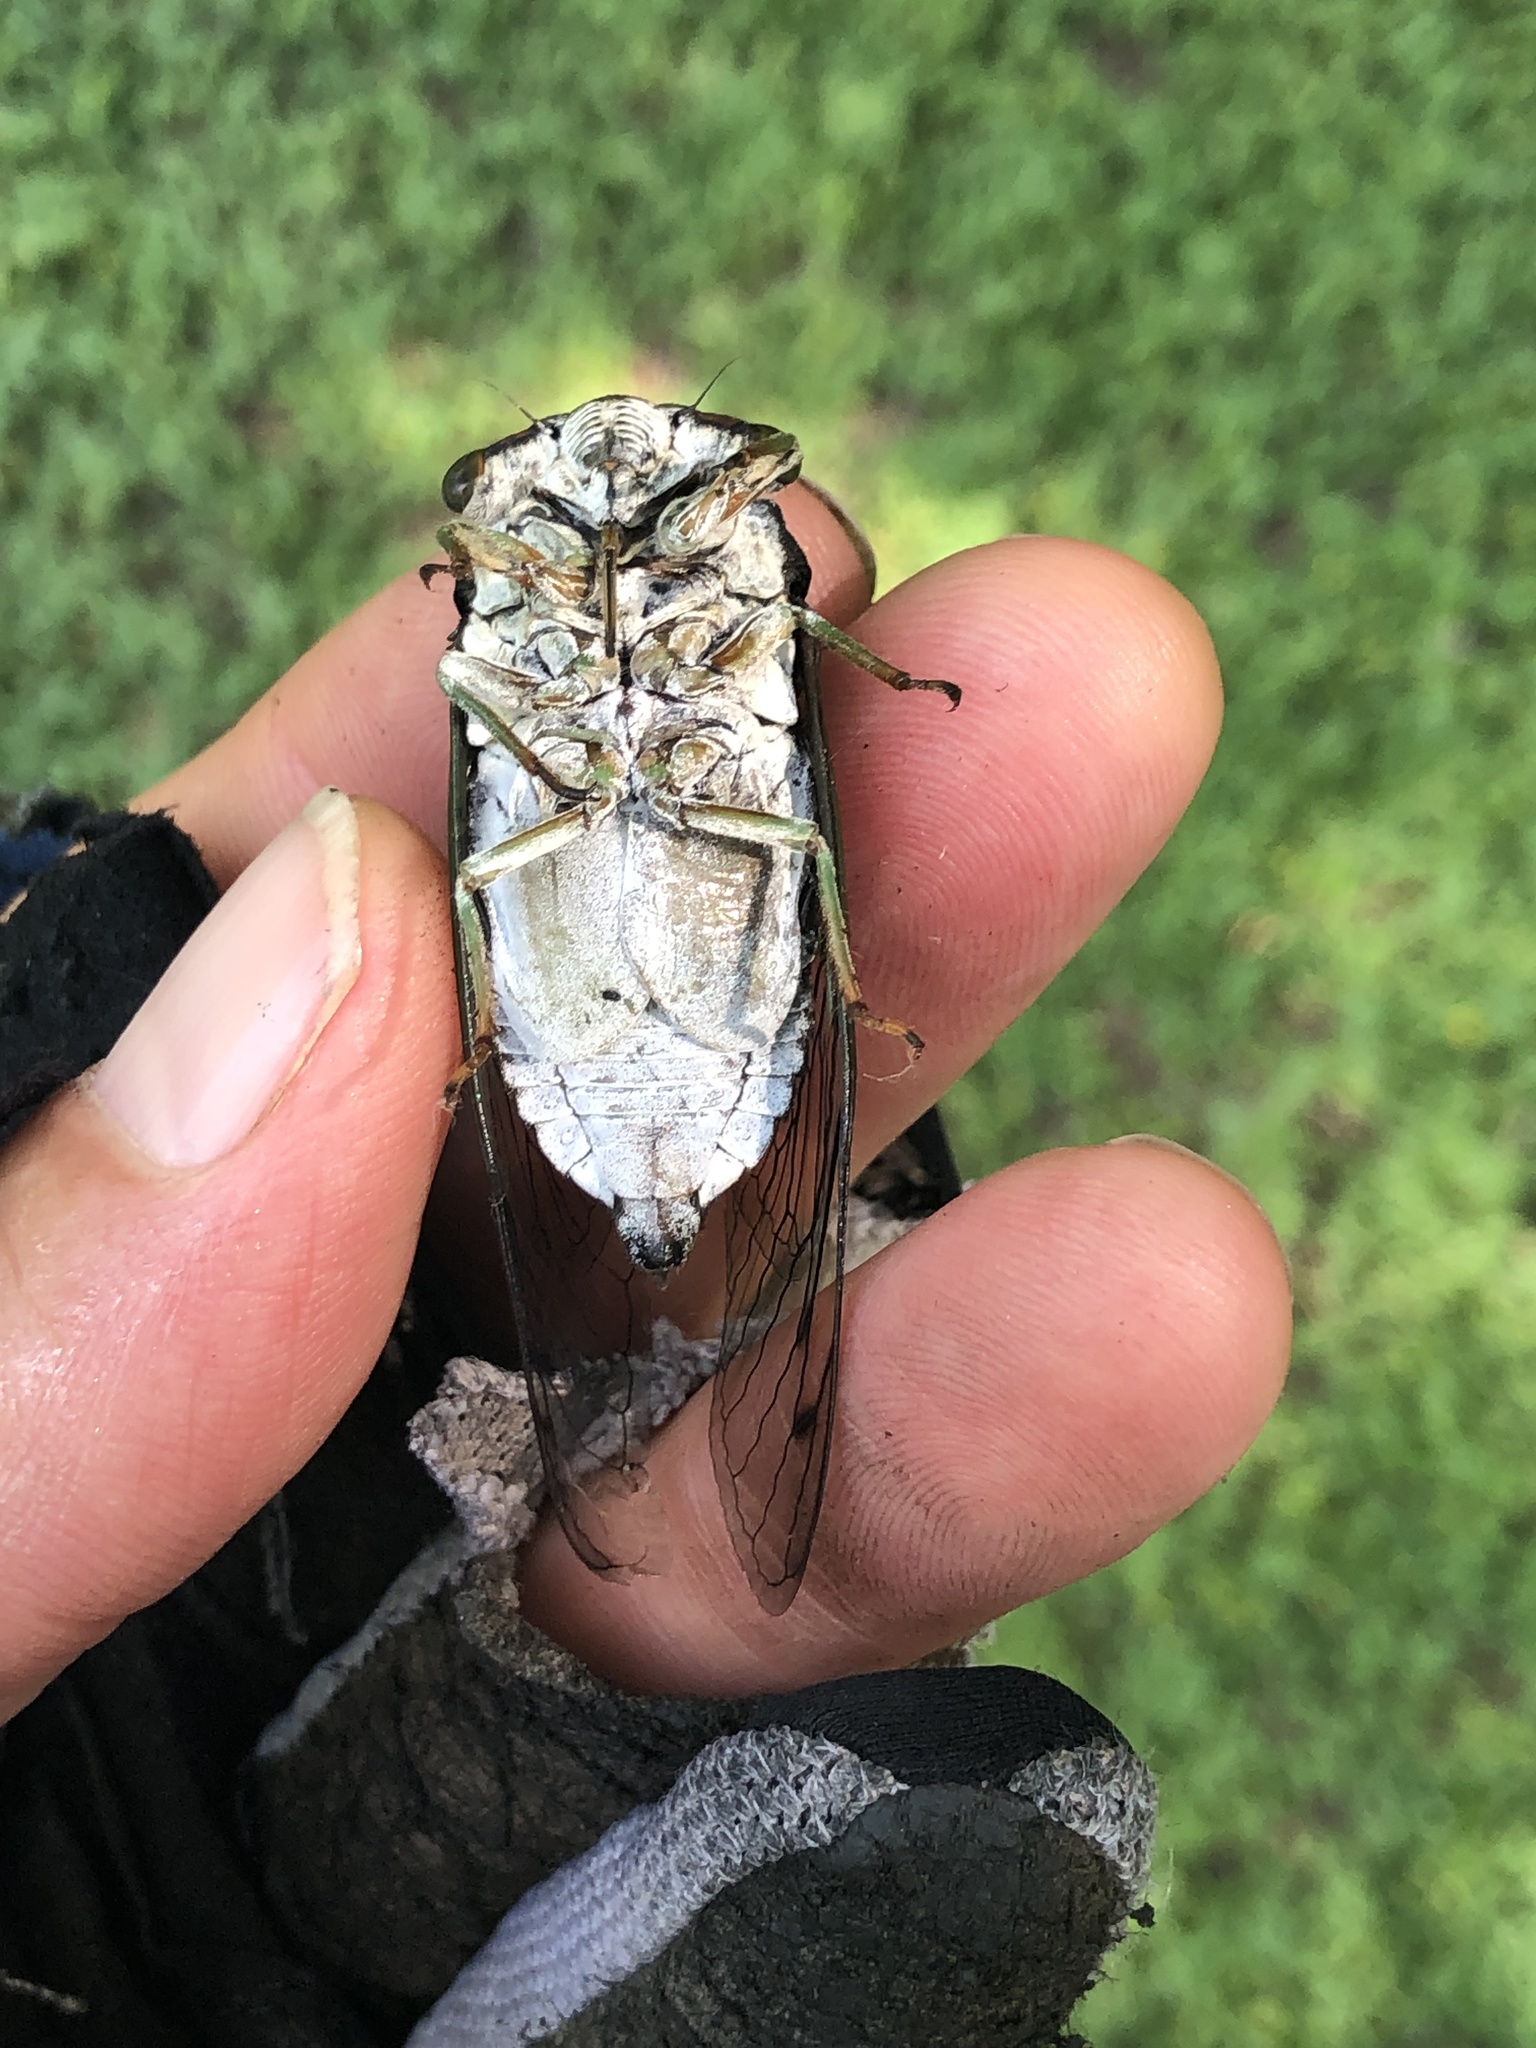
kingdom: Animalia
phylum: Arthropoda
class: Insecta
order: Hemiptera
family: Cicadidae
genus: Neotibicen
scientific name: Neotibicen tibicen
